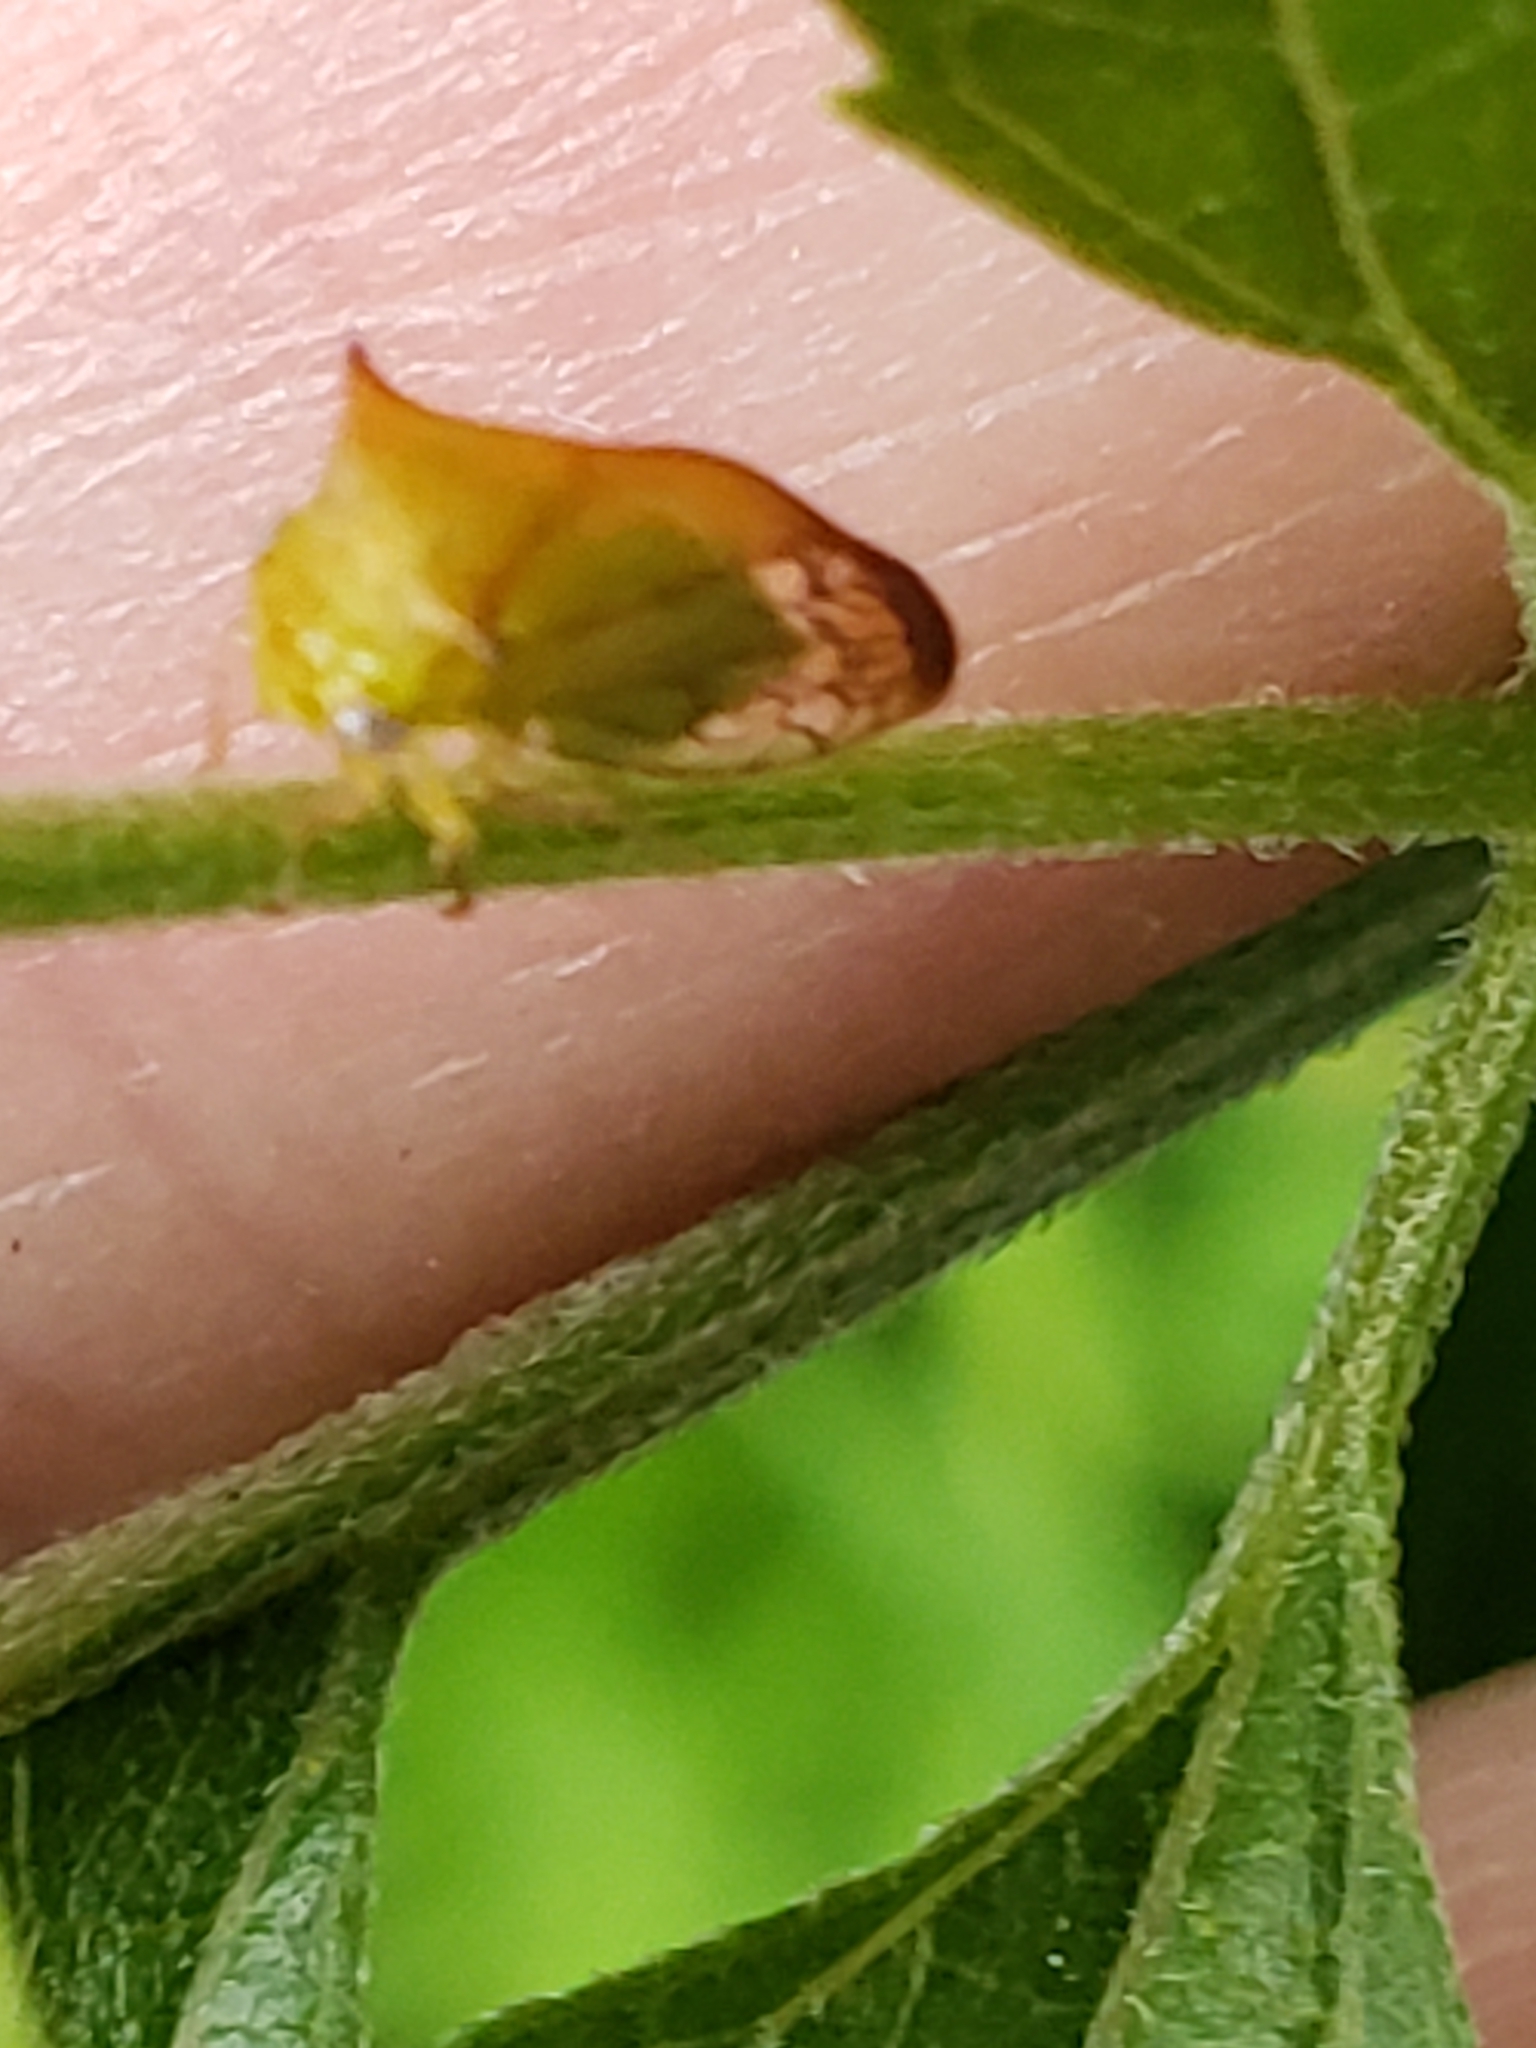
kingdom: Animalia
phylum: Arthropoda
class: Insecta
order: Hemiptera
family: Membracidae
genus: Stictolobus
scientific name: Stictolobus borealis
